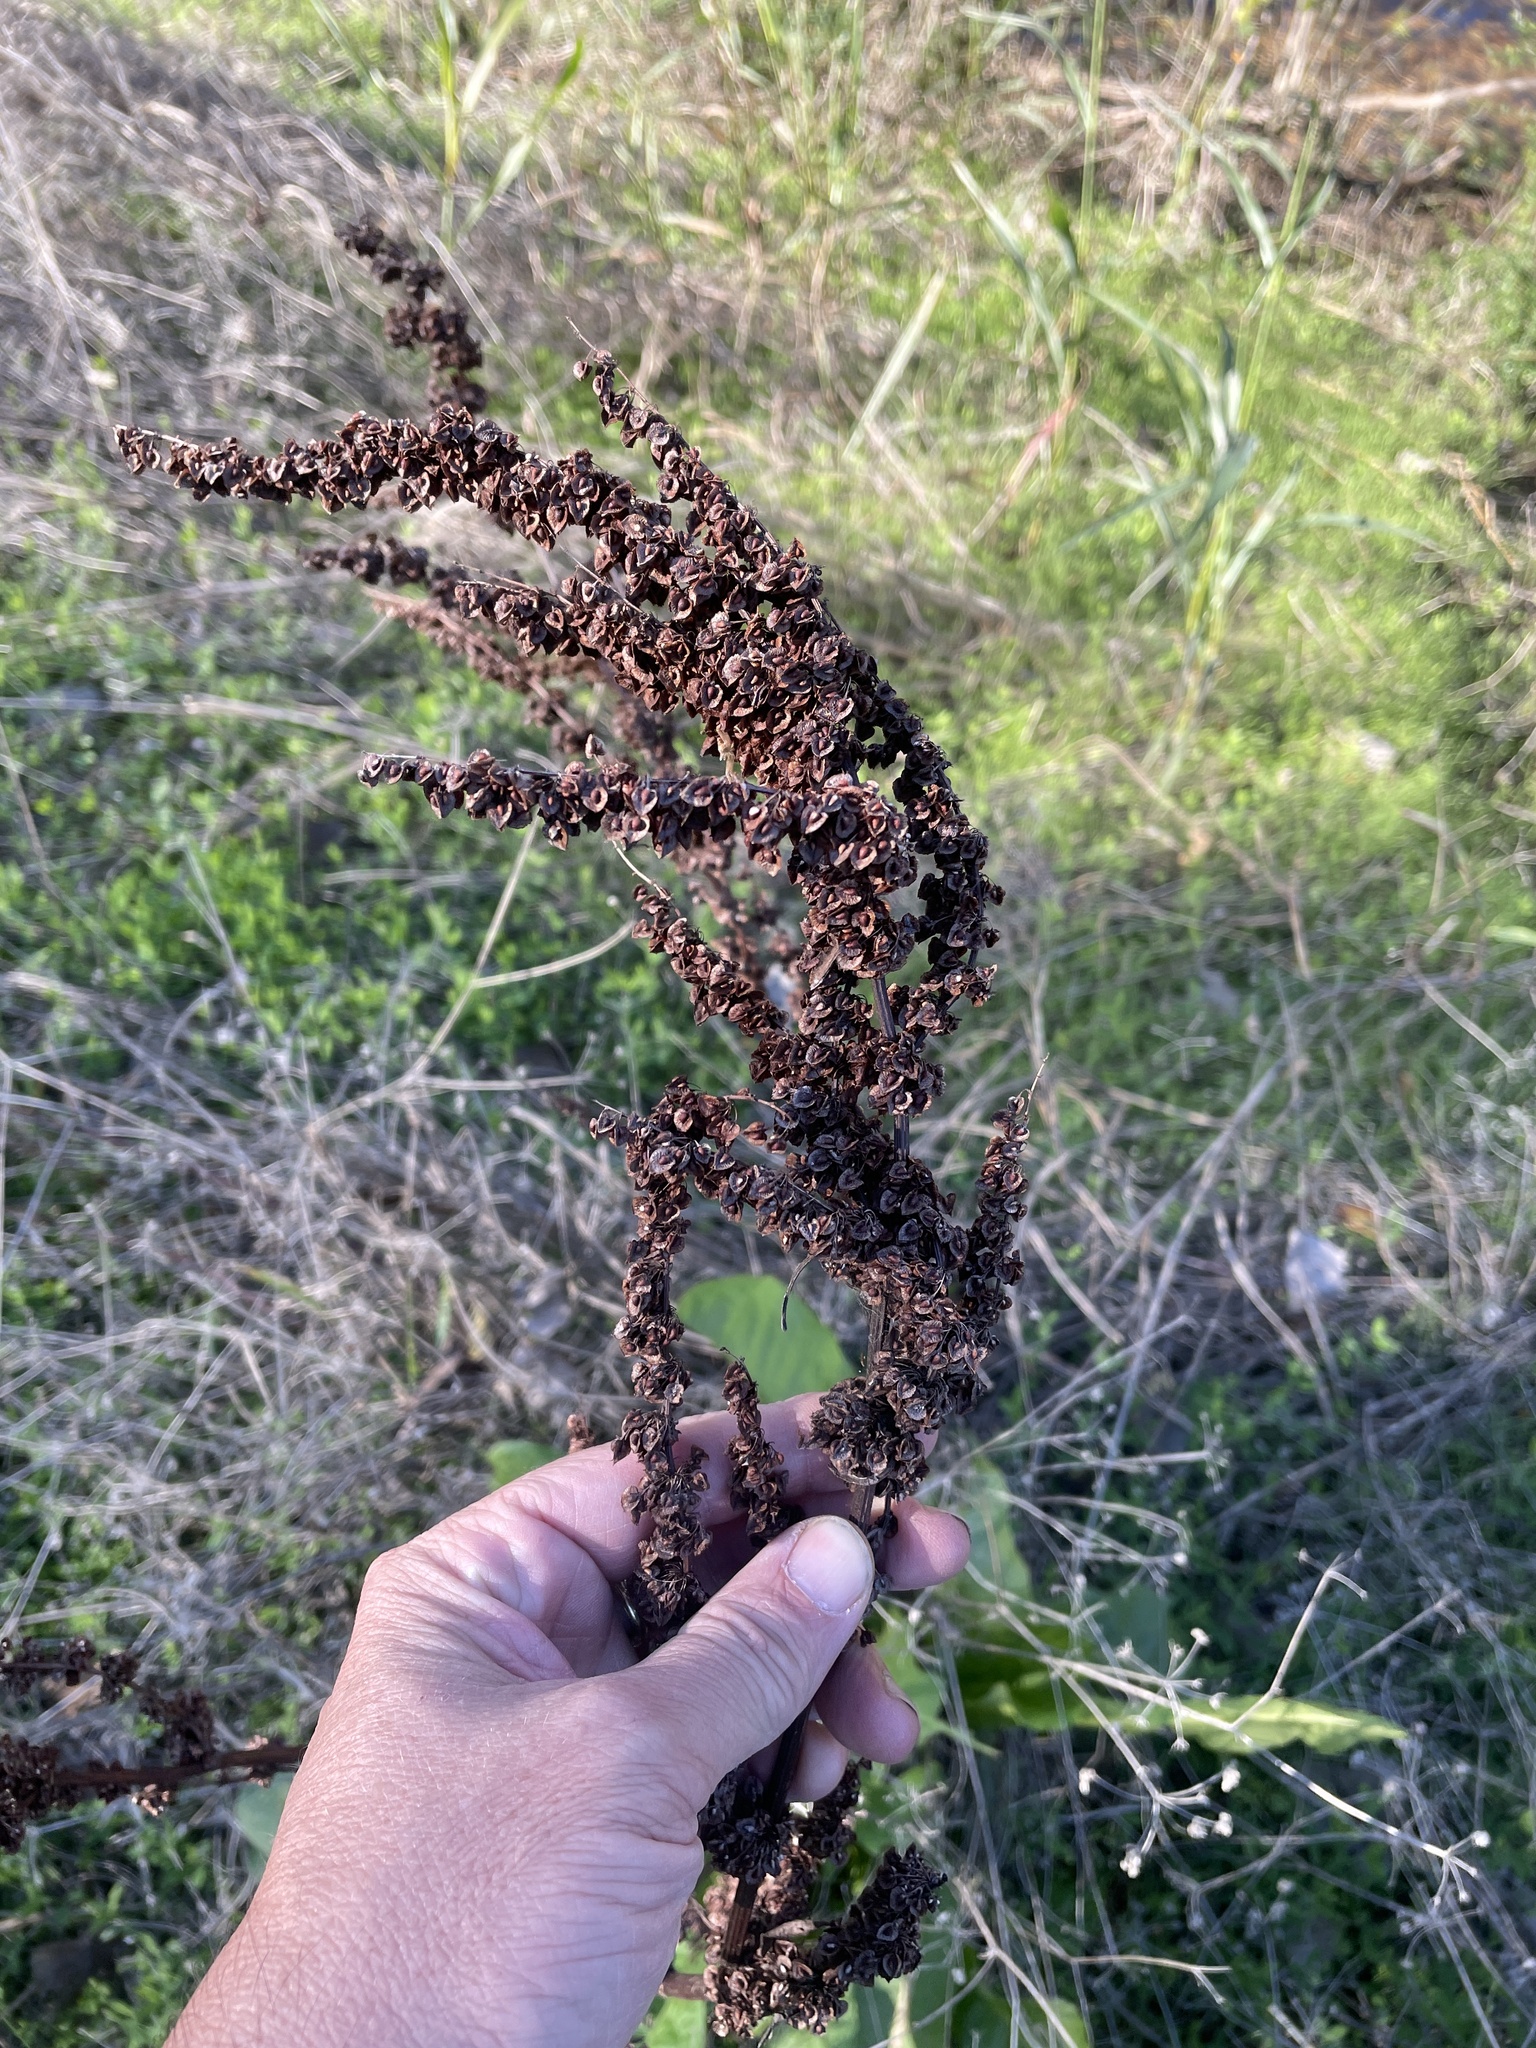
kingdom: Plantae
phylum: Tracheophyta
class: Magnoliopsida
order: Caryophyllales
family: Polygonaceae
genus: Rumex
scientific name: Rumex crispus
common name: Curled dock
